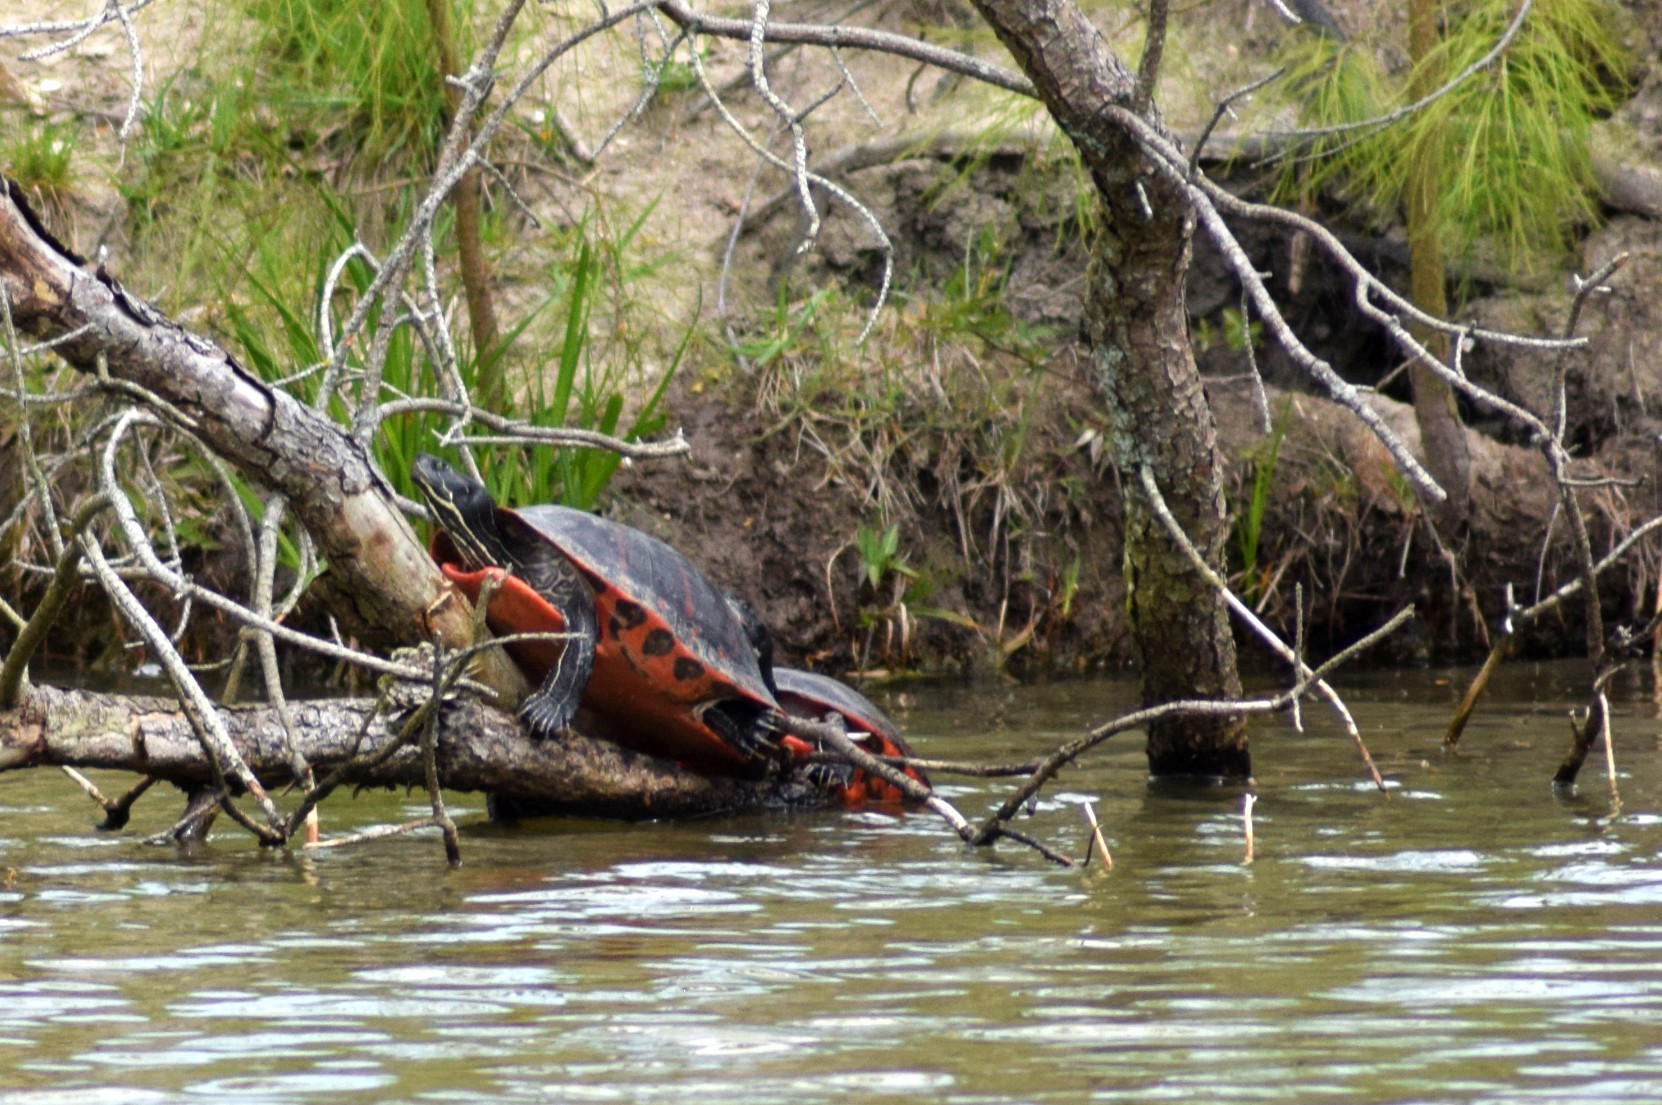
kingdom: Animalia
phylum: Chordata
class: Testudines
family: Emydidae
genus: Pseudemys
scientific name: Pseudemys rubriventris
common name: American red-bellied turtle
